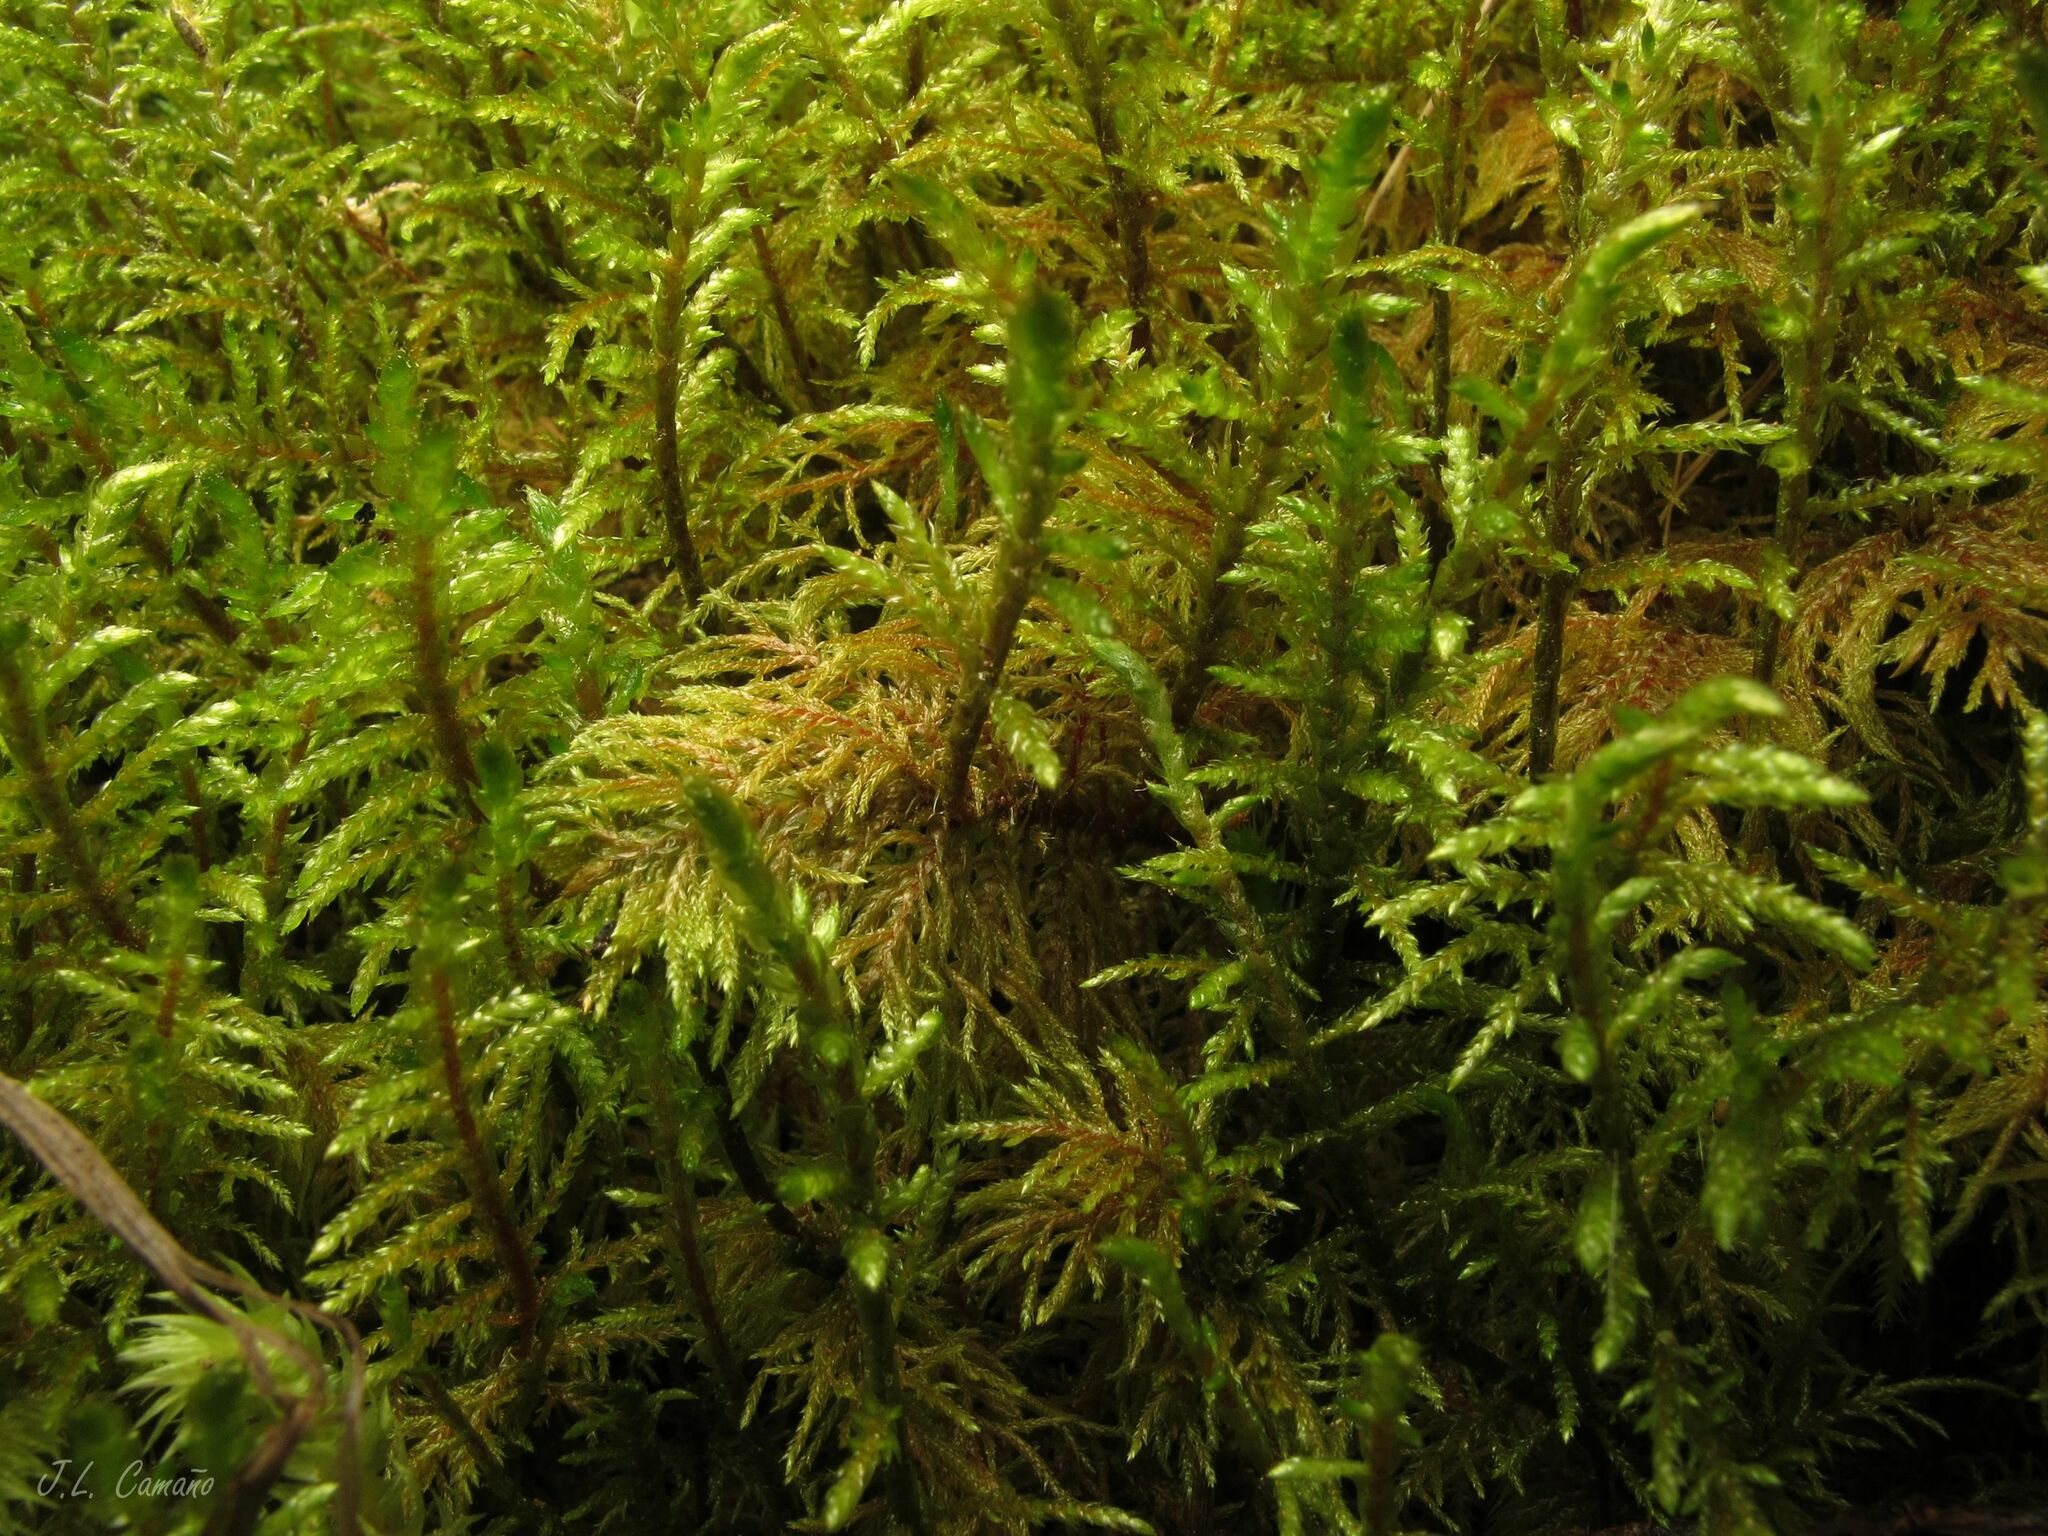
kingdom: Plantae
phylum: Bryophyta
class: Bryopsida
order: Hypnales
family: Hylocomiaceae
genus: Hylocomium
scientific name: Hylocomium splendens
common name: Stairstep moss
